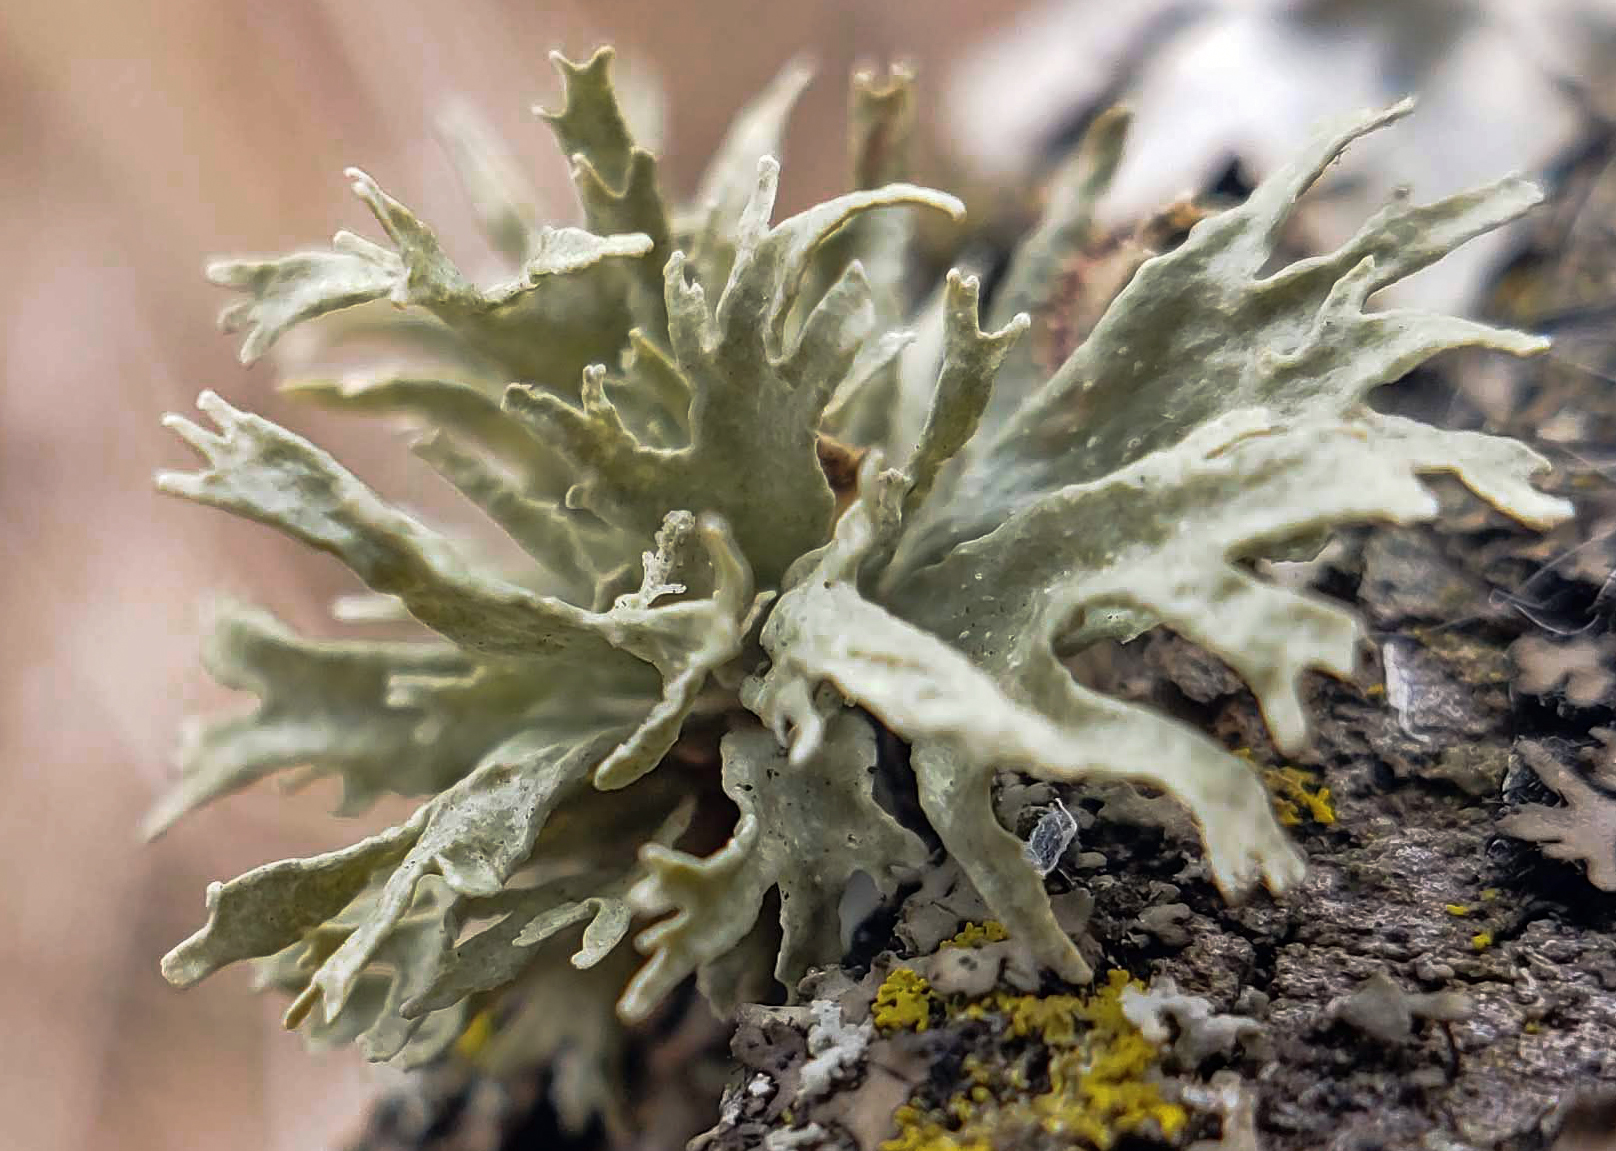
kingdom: Fungi
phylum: Ascomycota
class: Lecanoromycetes
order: Lecanorales
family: Ramalinaceae
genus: Ramalina
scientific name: Ramalina americana
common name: Sinewed bush lichen
